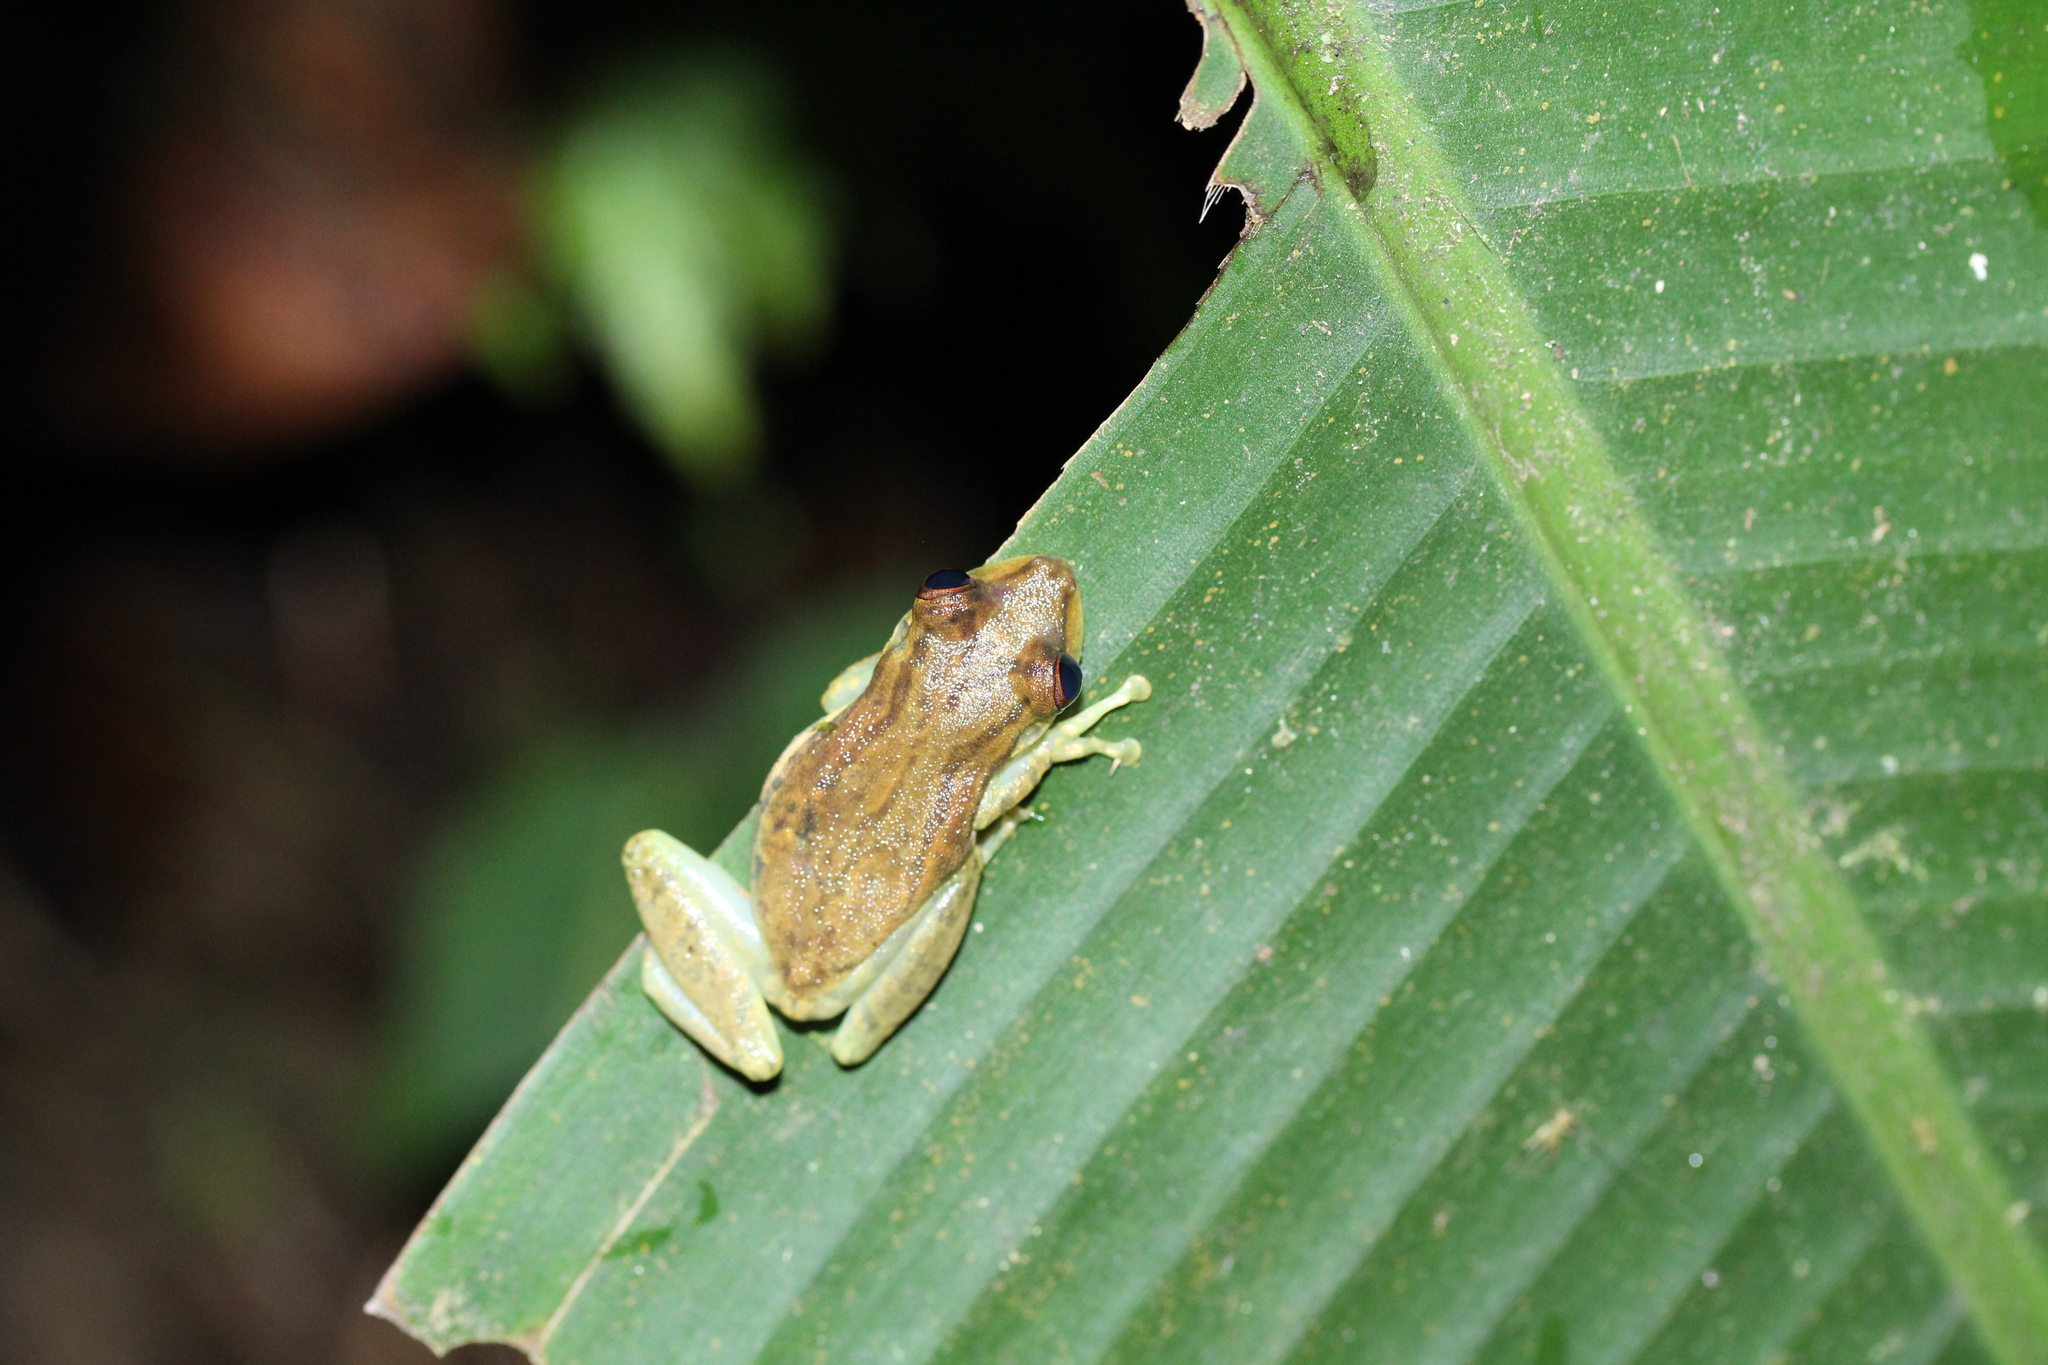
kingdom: Animalia
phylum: Chordata
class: Amphibia
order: Anura
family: Hylidae
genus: Scinax
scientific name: Scinax quinquefasciatus
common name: Fowler's snouted treefrog
